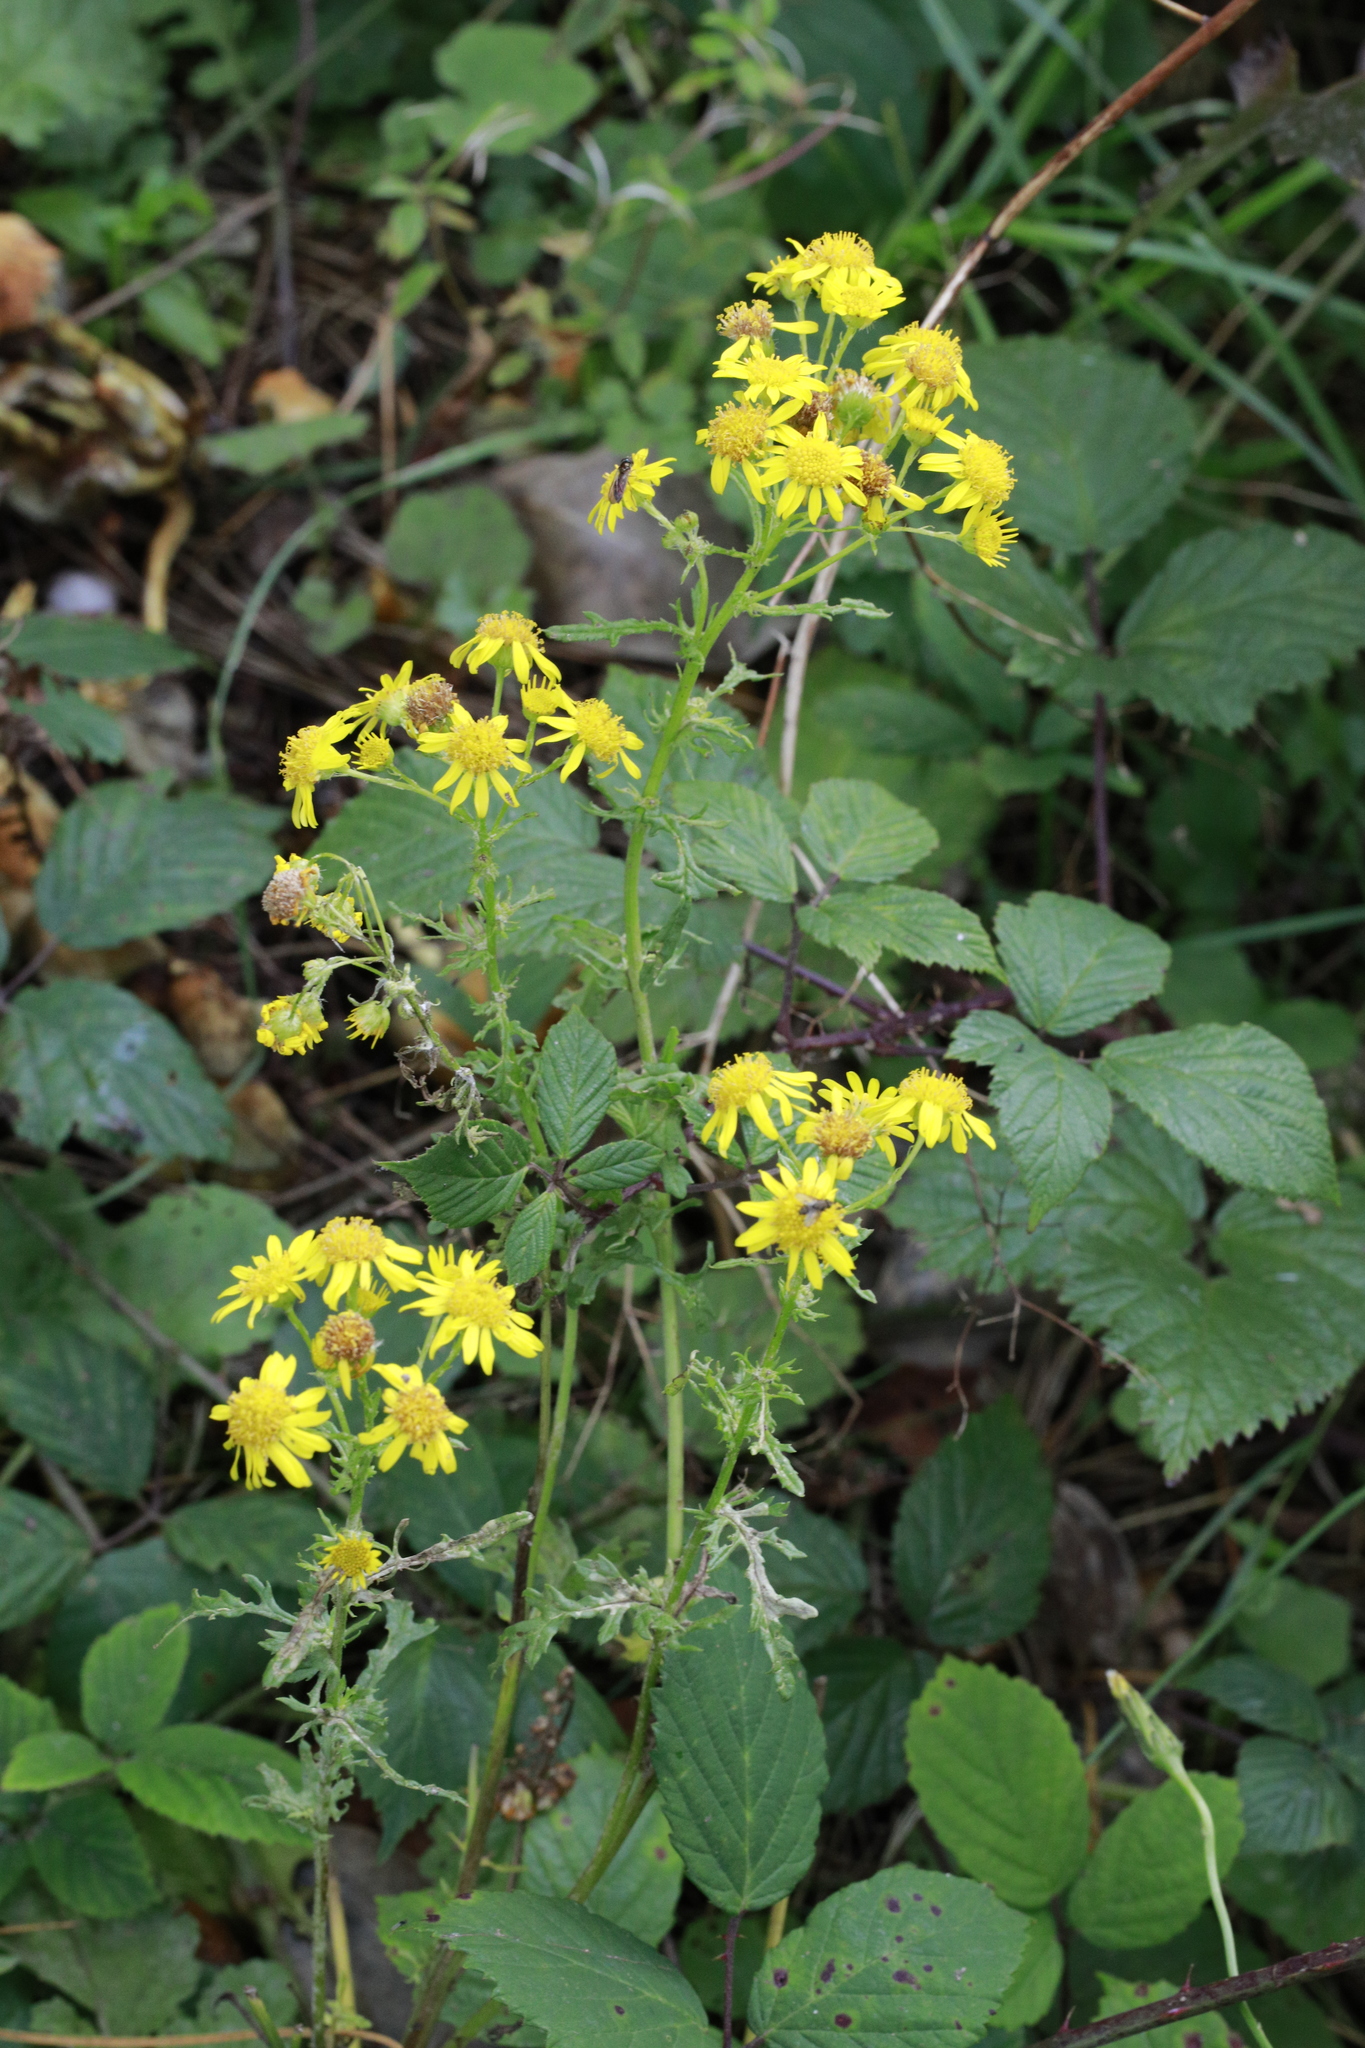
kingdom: Plantae
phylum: Tracheophyta
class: Magnoliopsida
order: Asterales
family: Asteraceae
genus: Jacobaea
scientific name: Jacobaea vulgaris
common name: Stinking willie
